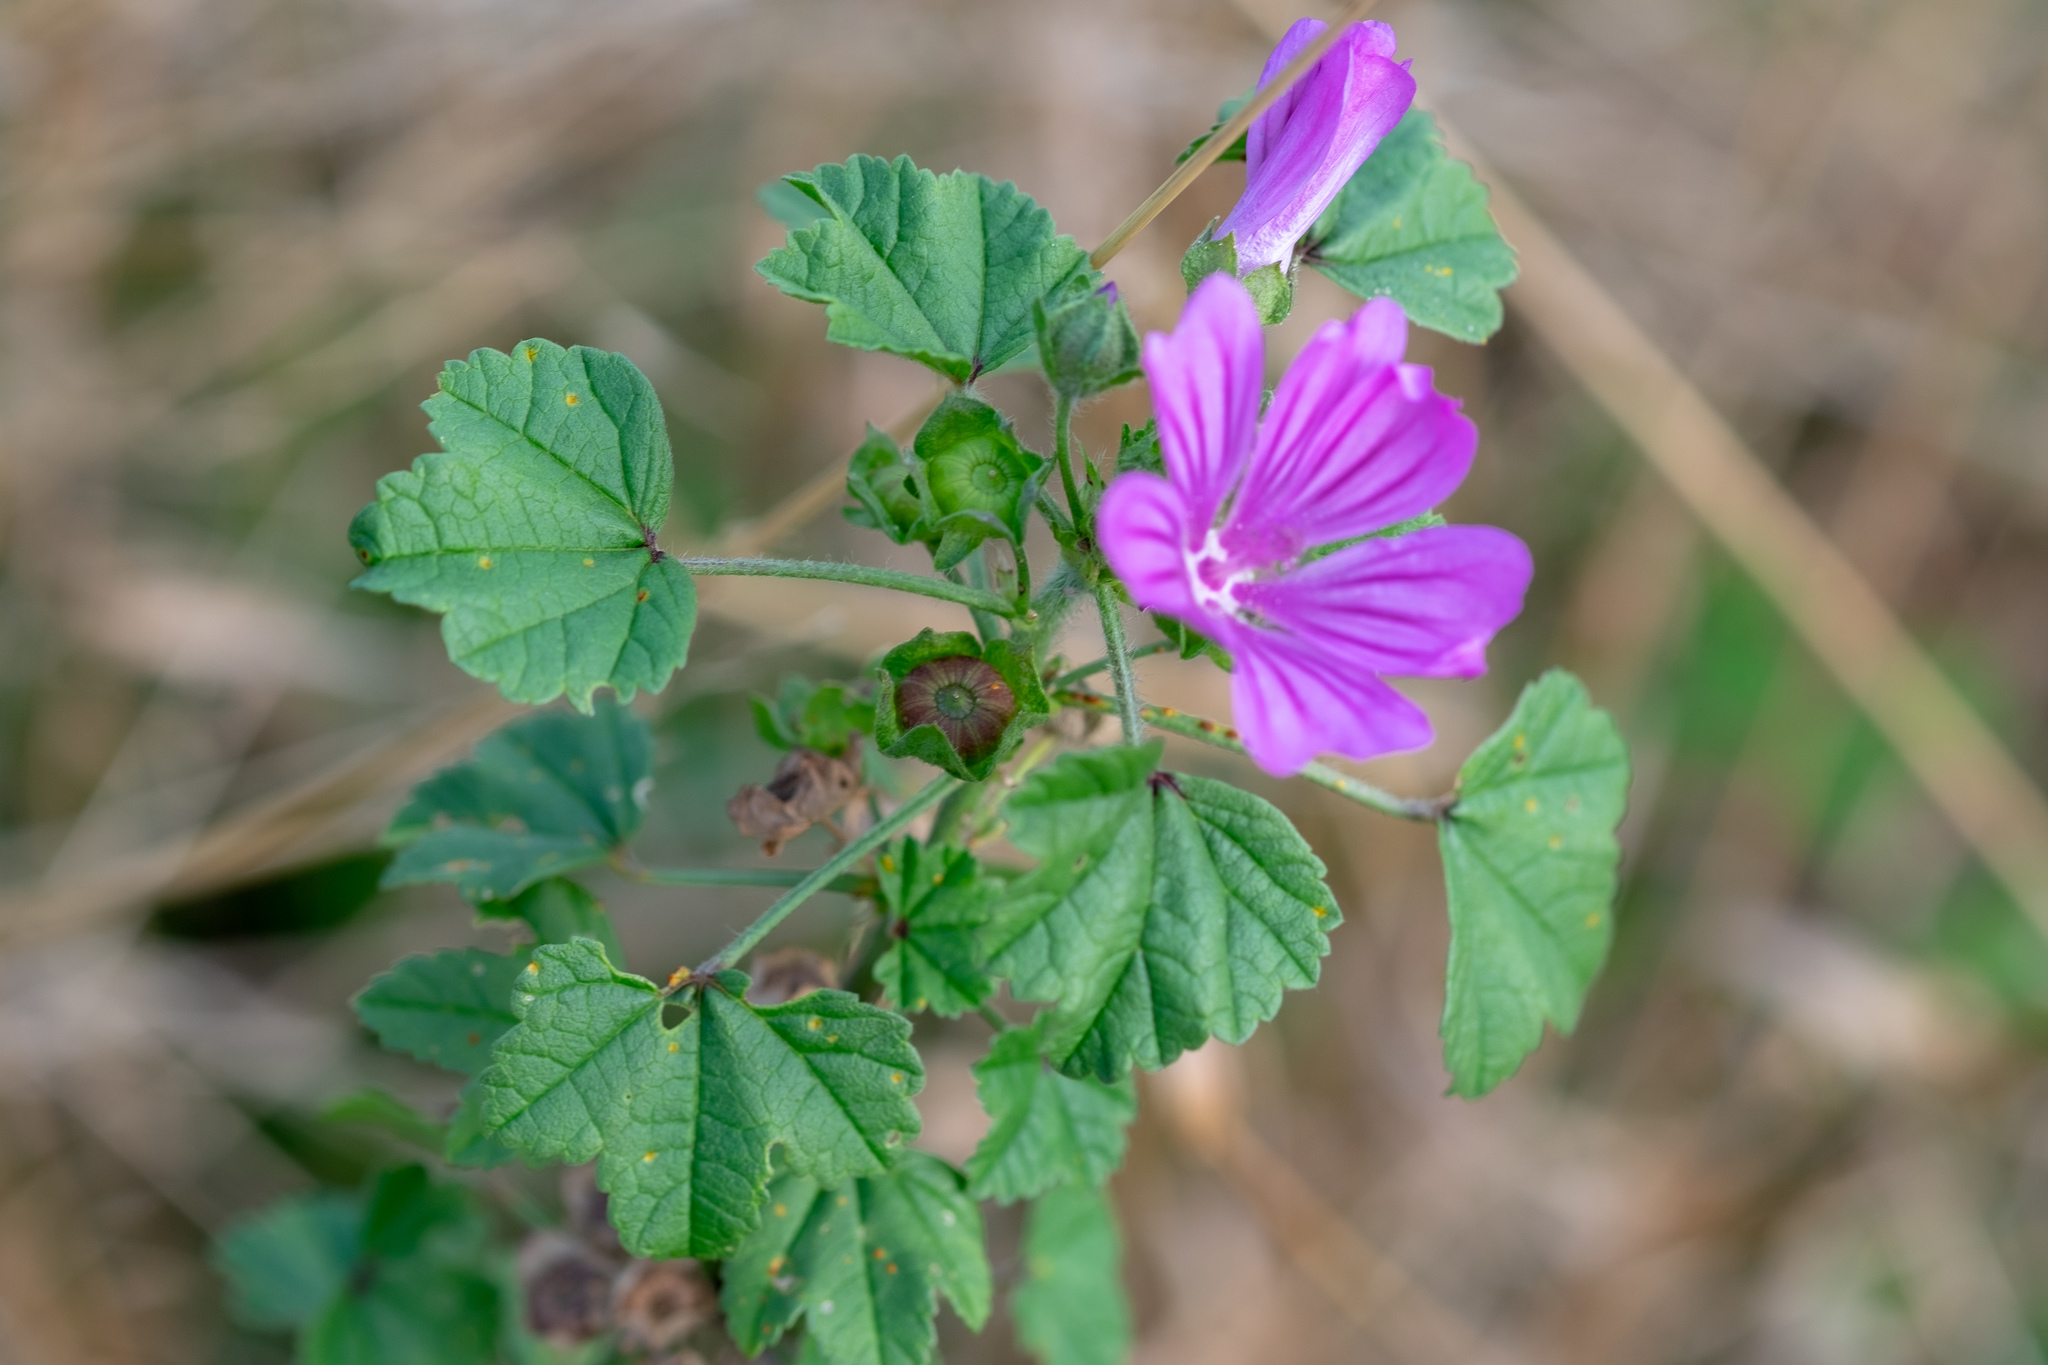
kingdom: Plantae
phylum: Tracheophyta
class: Magnoliopsida
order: Malvales
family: Malvaceae
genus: Malva
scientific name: Malva sylvestris
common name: Common mallow
